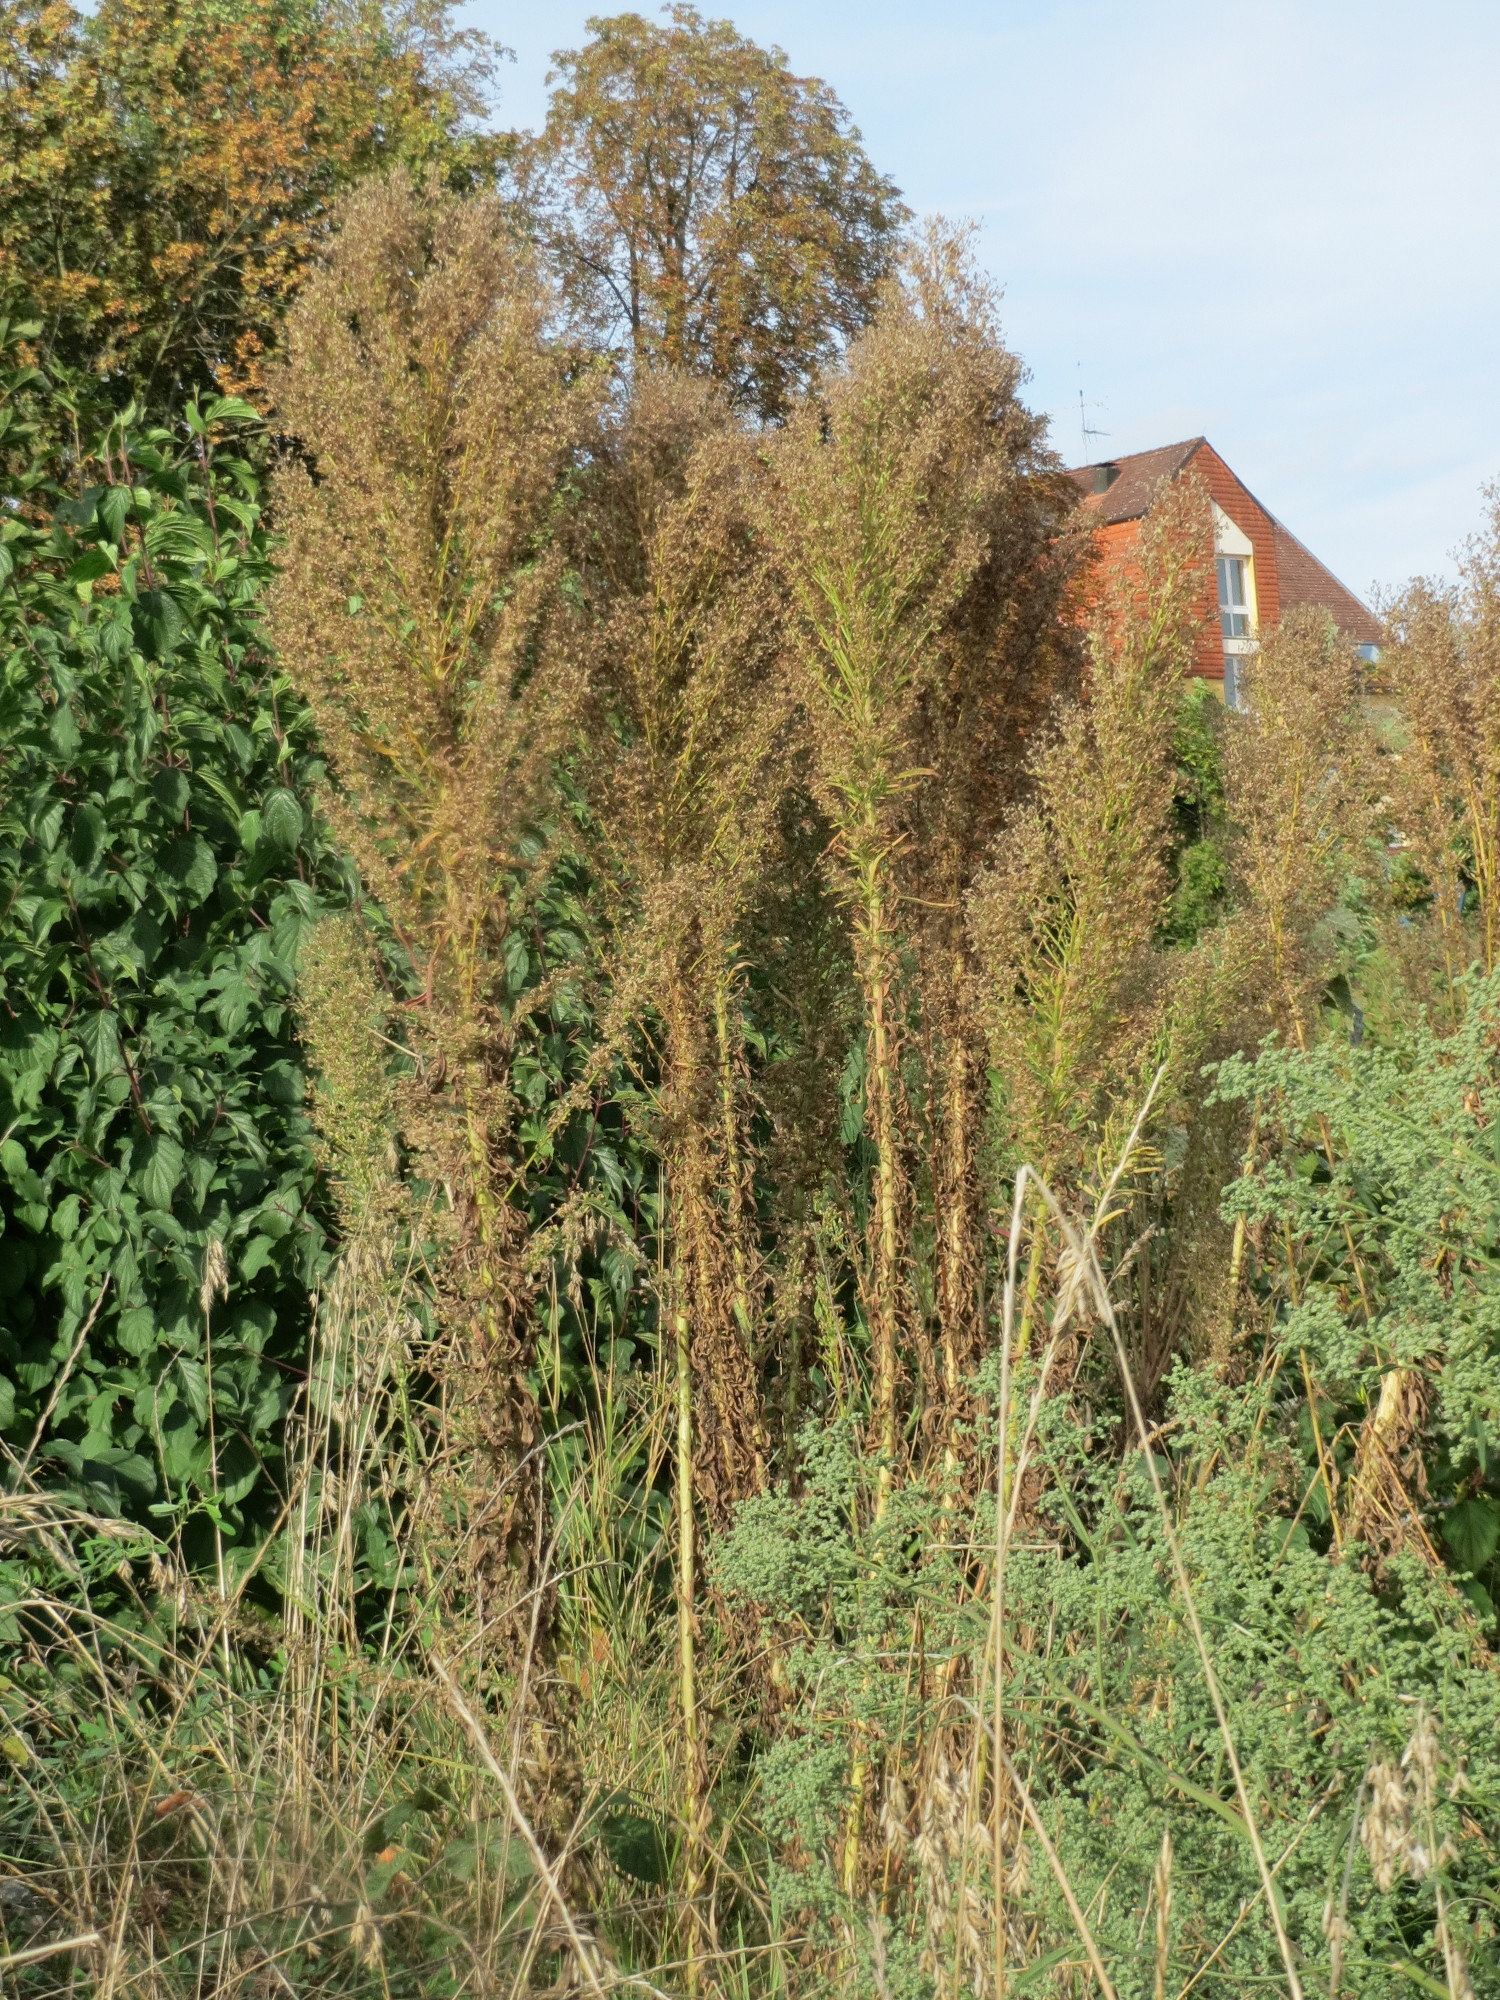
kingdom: Plantae
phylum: Tracheophyta
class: Magnoliopsida
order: Asterales
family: Asteraceae
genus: Erigeron
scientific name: Erigeron canadensis
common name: Canadian fleabane
